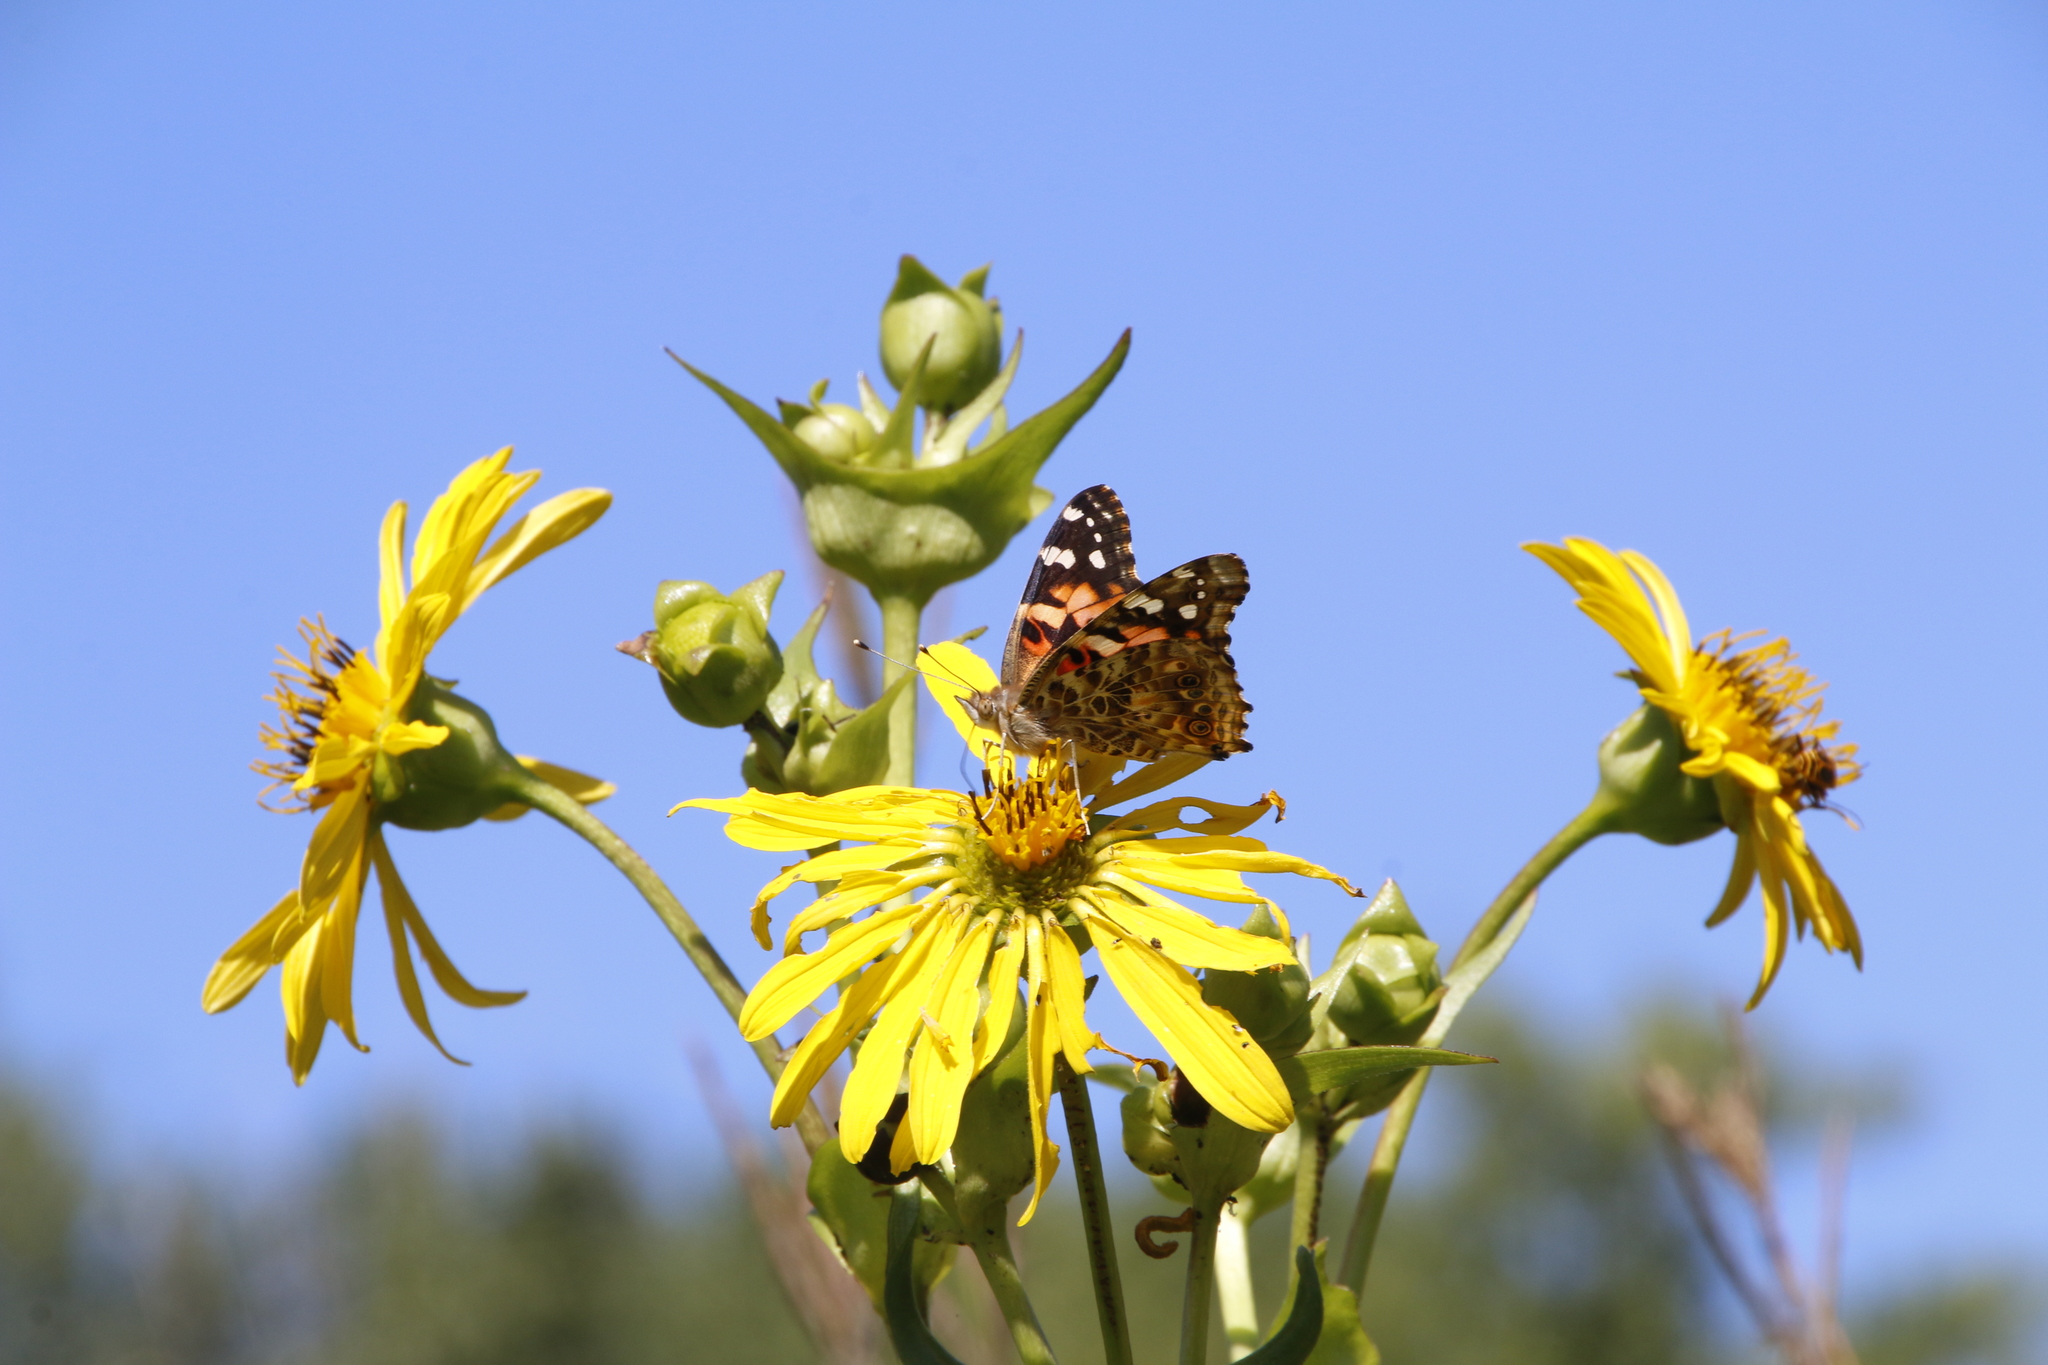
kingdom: Animalia
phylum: Arthropoda
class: Insecta
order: Lepidoptera
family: Nymphalidae
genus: Vanessa
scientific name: Vanessa cardui
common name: Painted lady
